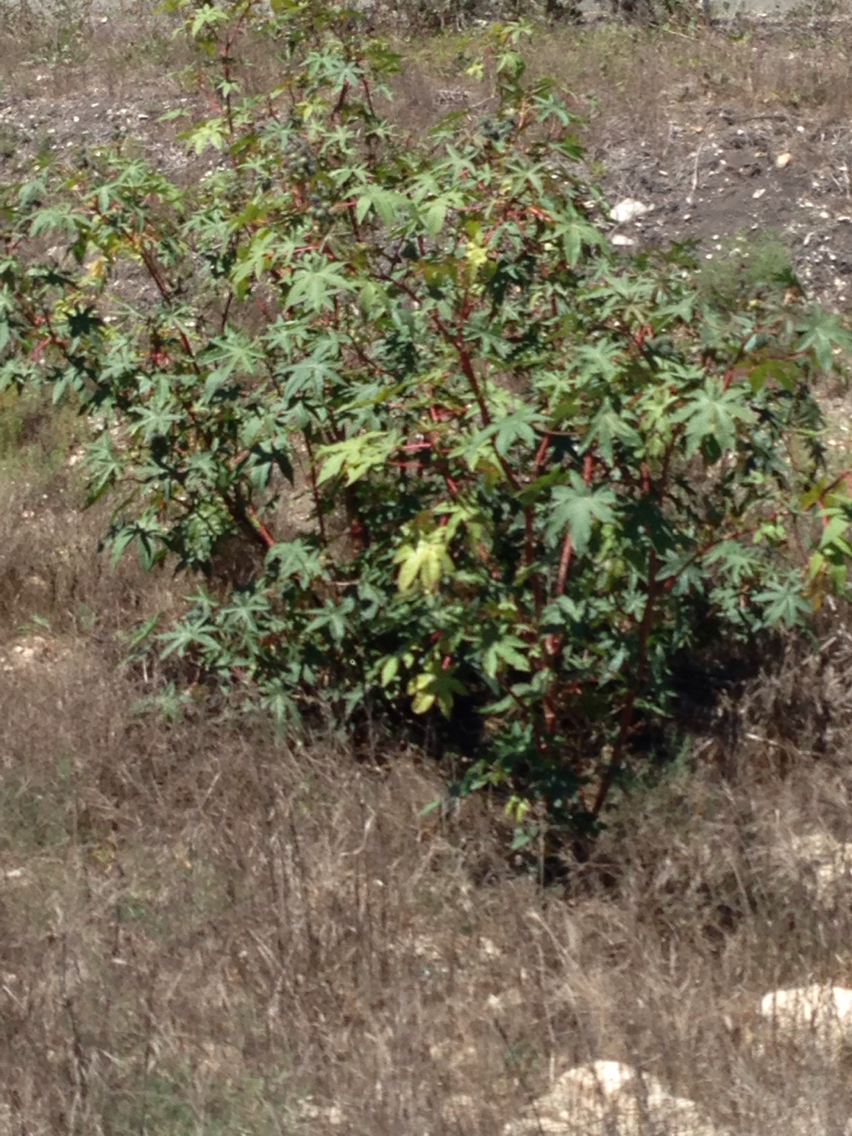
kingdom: Plantae
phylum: Tracheophyta
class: Magnoliopsida
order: Malpighiales
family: Euphorbiaceae
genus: Ricinus
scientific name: Ricinus communis
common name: Castor-oil-plant
